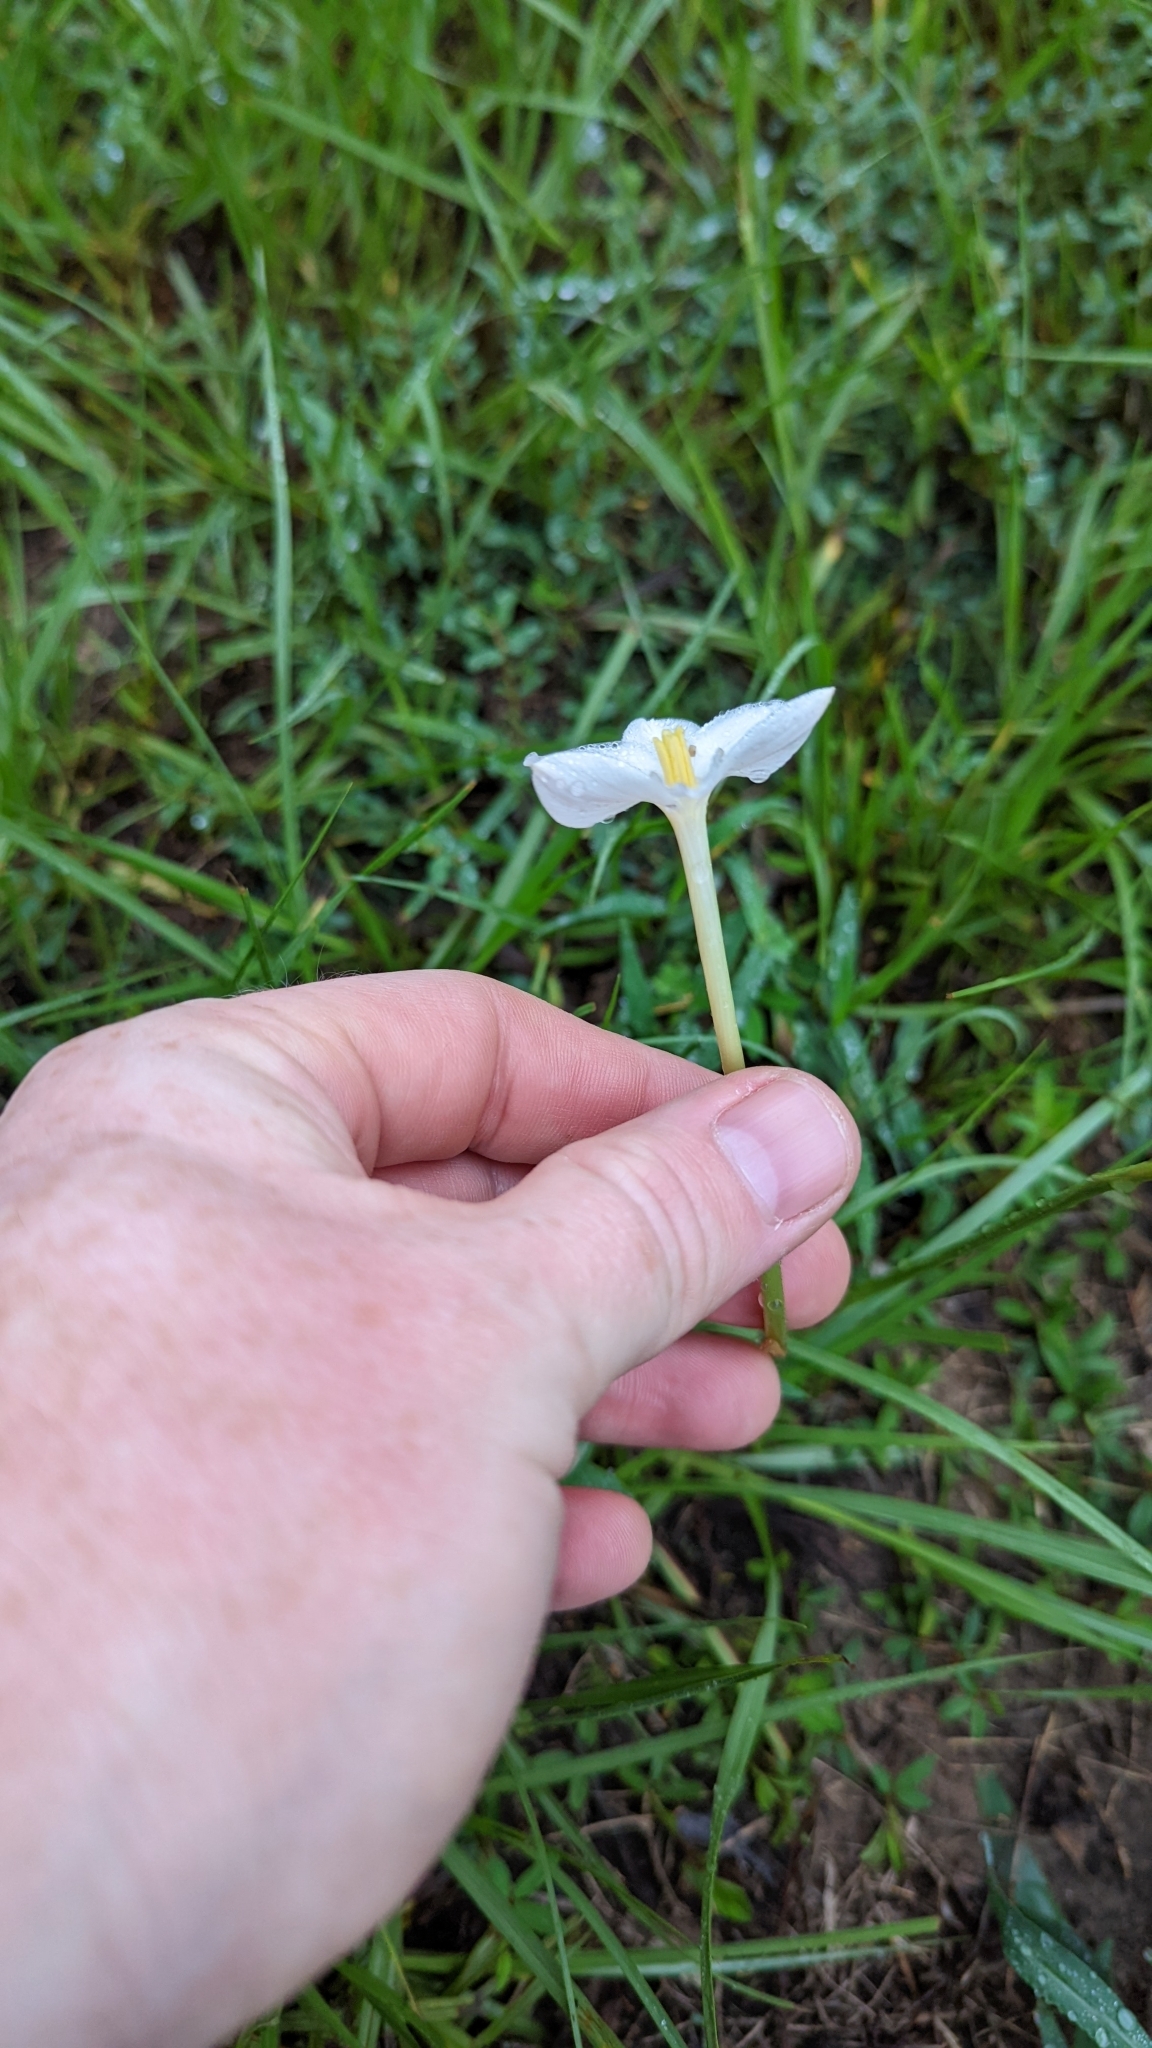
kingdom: Plantae
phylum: Tracheophyta
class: Liliopsida
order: Asparagales
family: Amaryllidaceae
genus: Zephyranthes
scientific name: Zephyranthes chlorosolen
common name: Evening rain-lily
